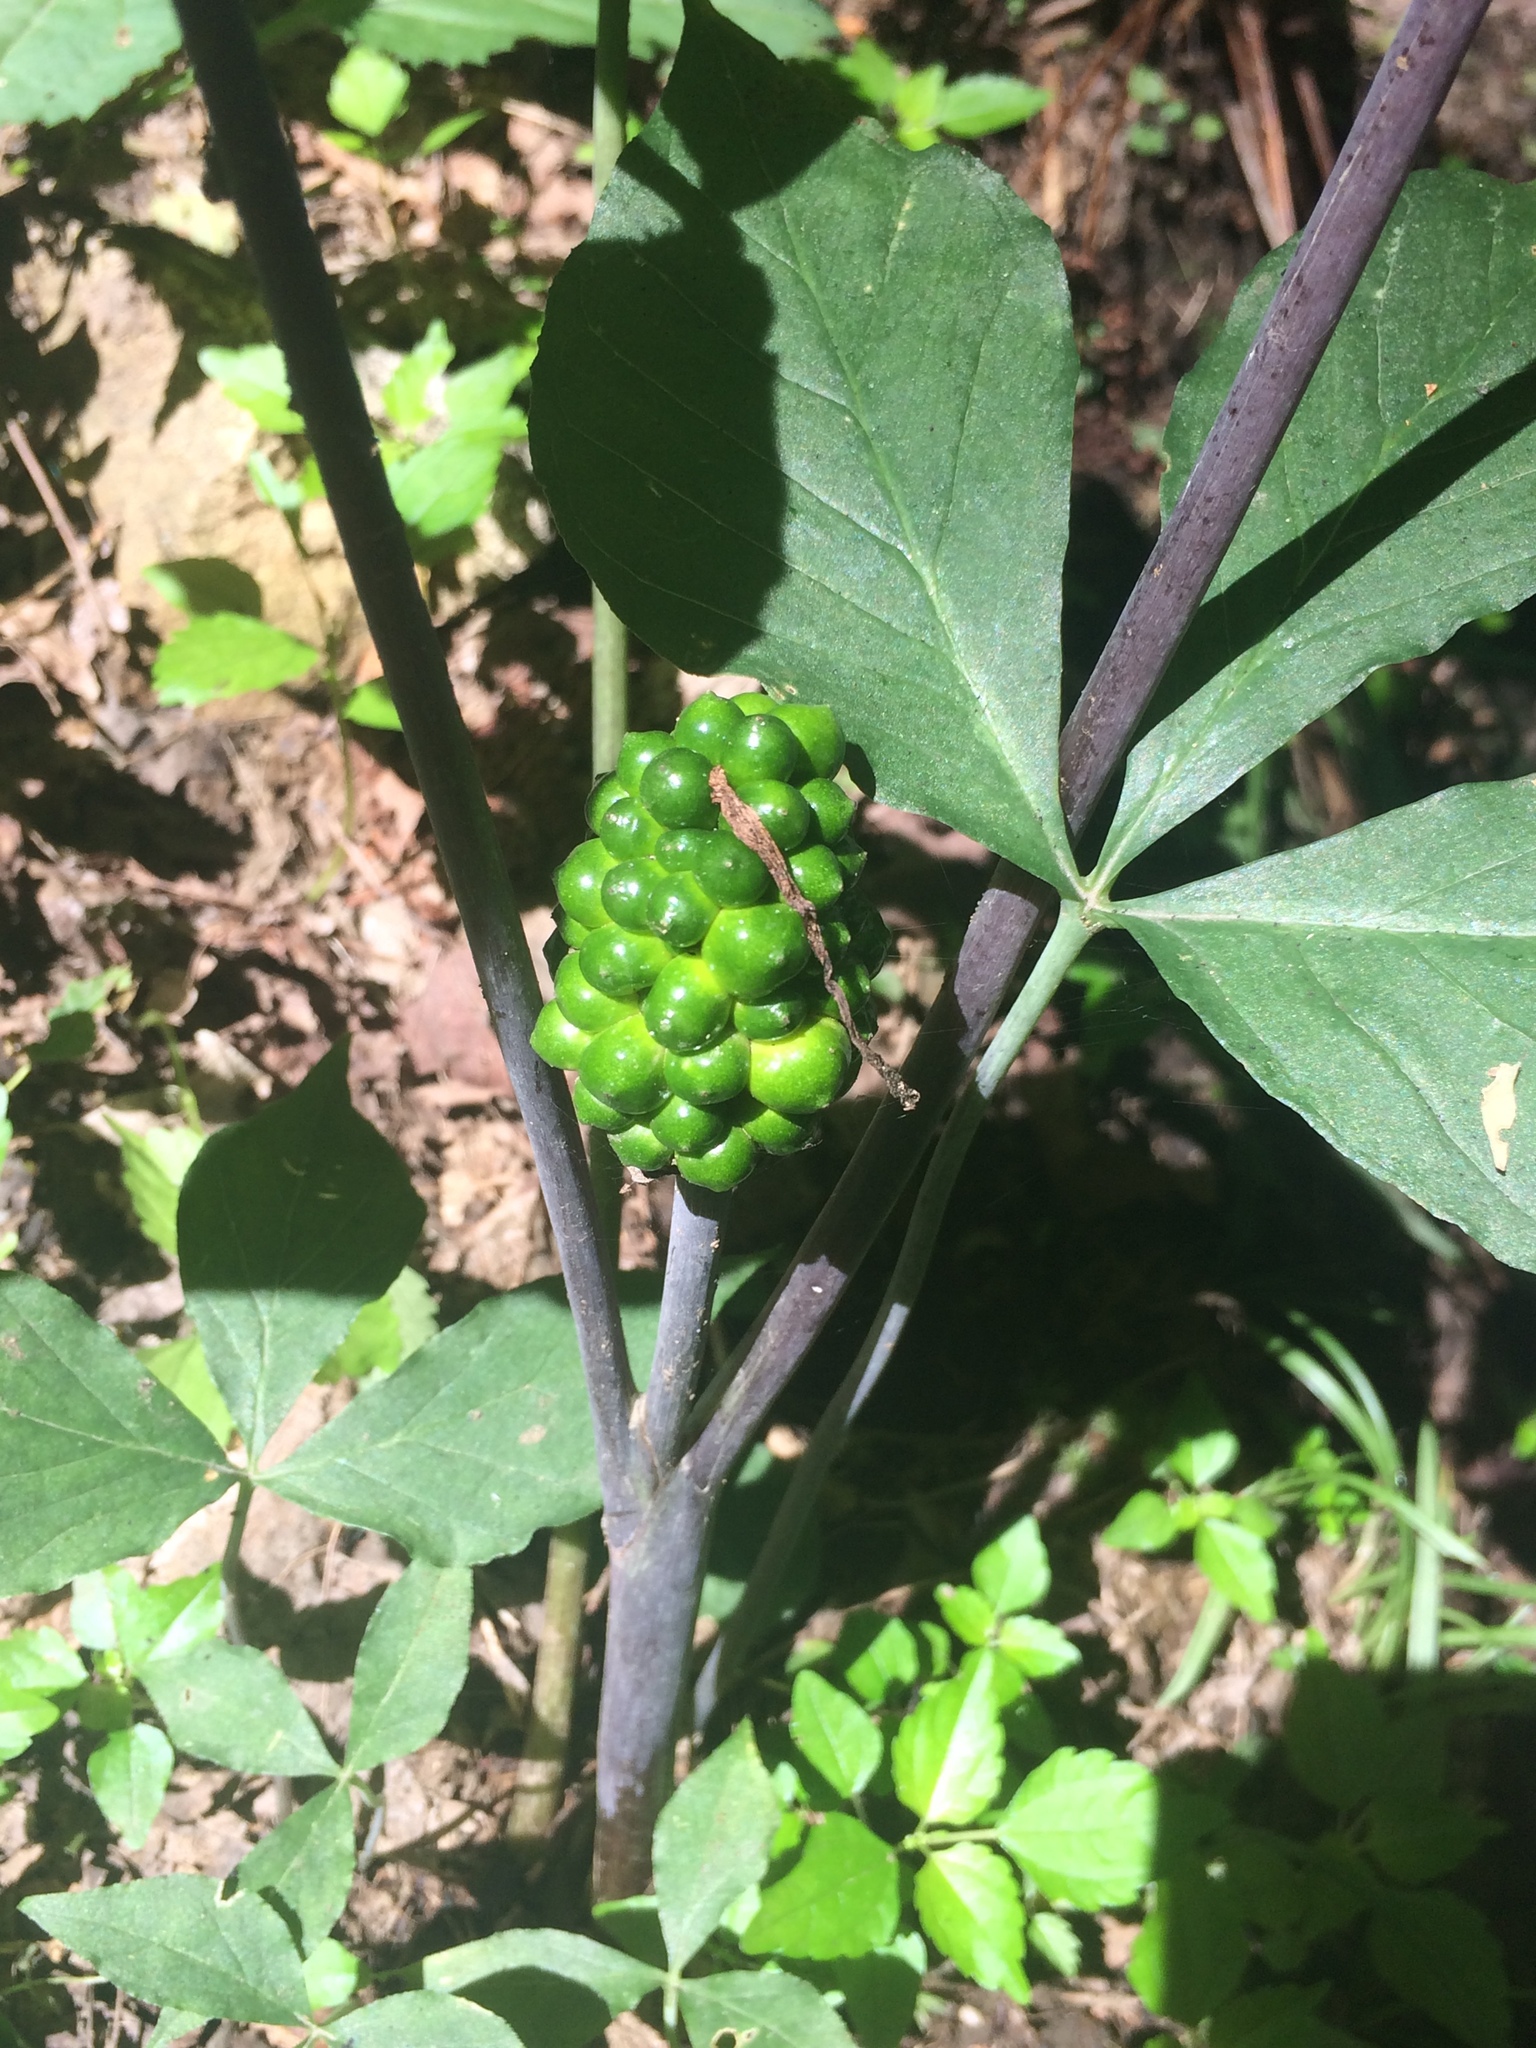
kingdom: Plantae
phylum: Tracheophyta
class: Liliopsida
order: Alismatales
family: Araceae
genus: Arisaema
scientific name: Arisaema triphyllum
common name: Jack-in-the-pulpit
